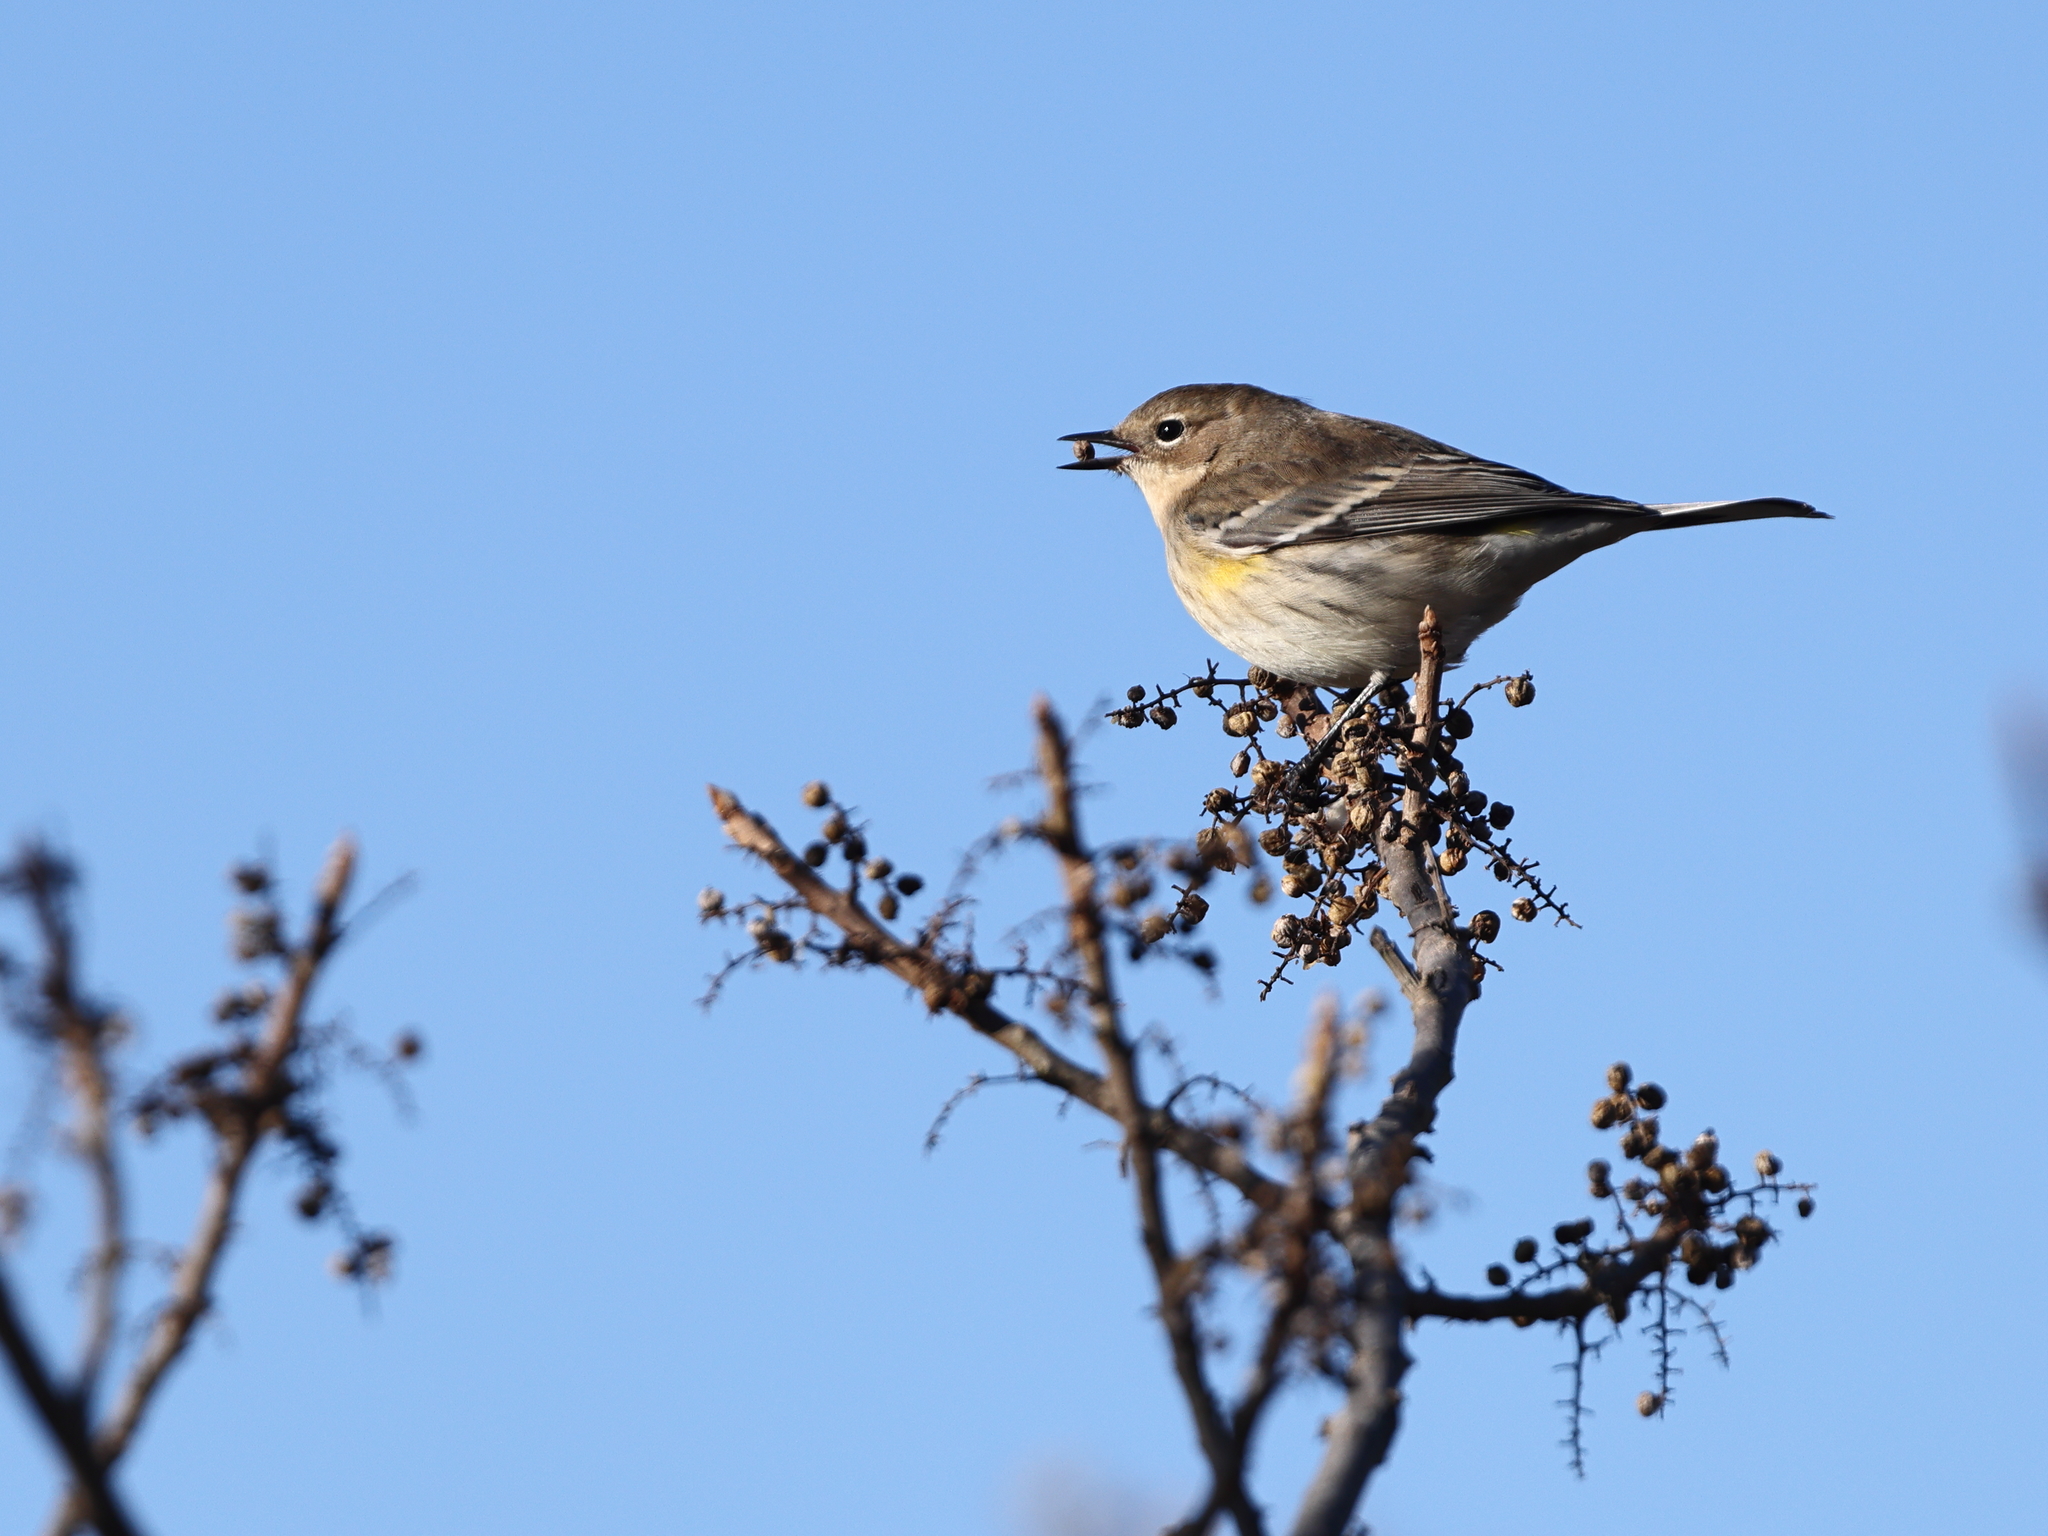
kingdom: Animalia
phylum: Chordata
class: Aves
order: Passeriformes
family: Parulidae
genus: Setophaga
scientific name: Setophaga coronata
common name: Myrtle warbler
